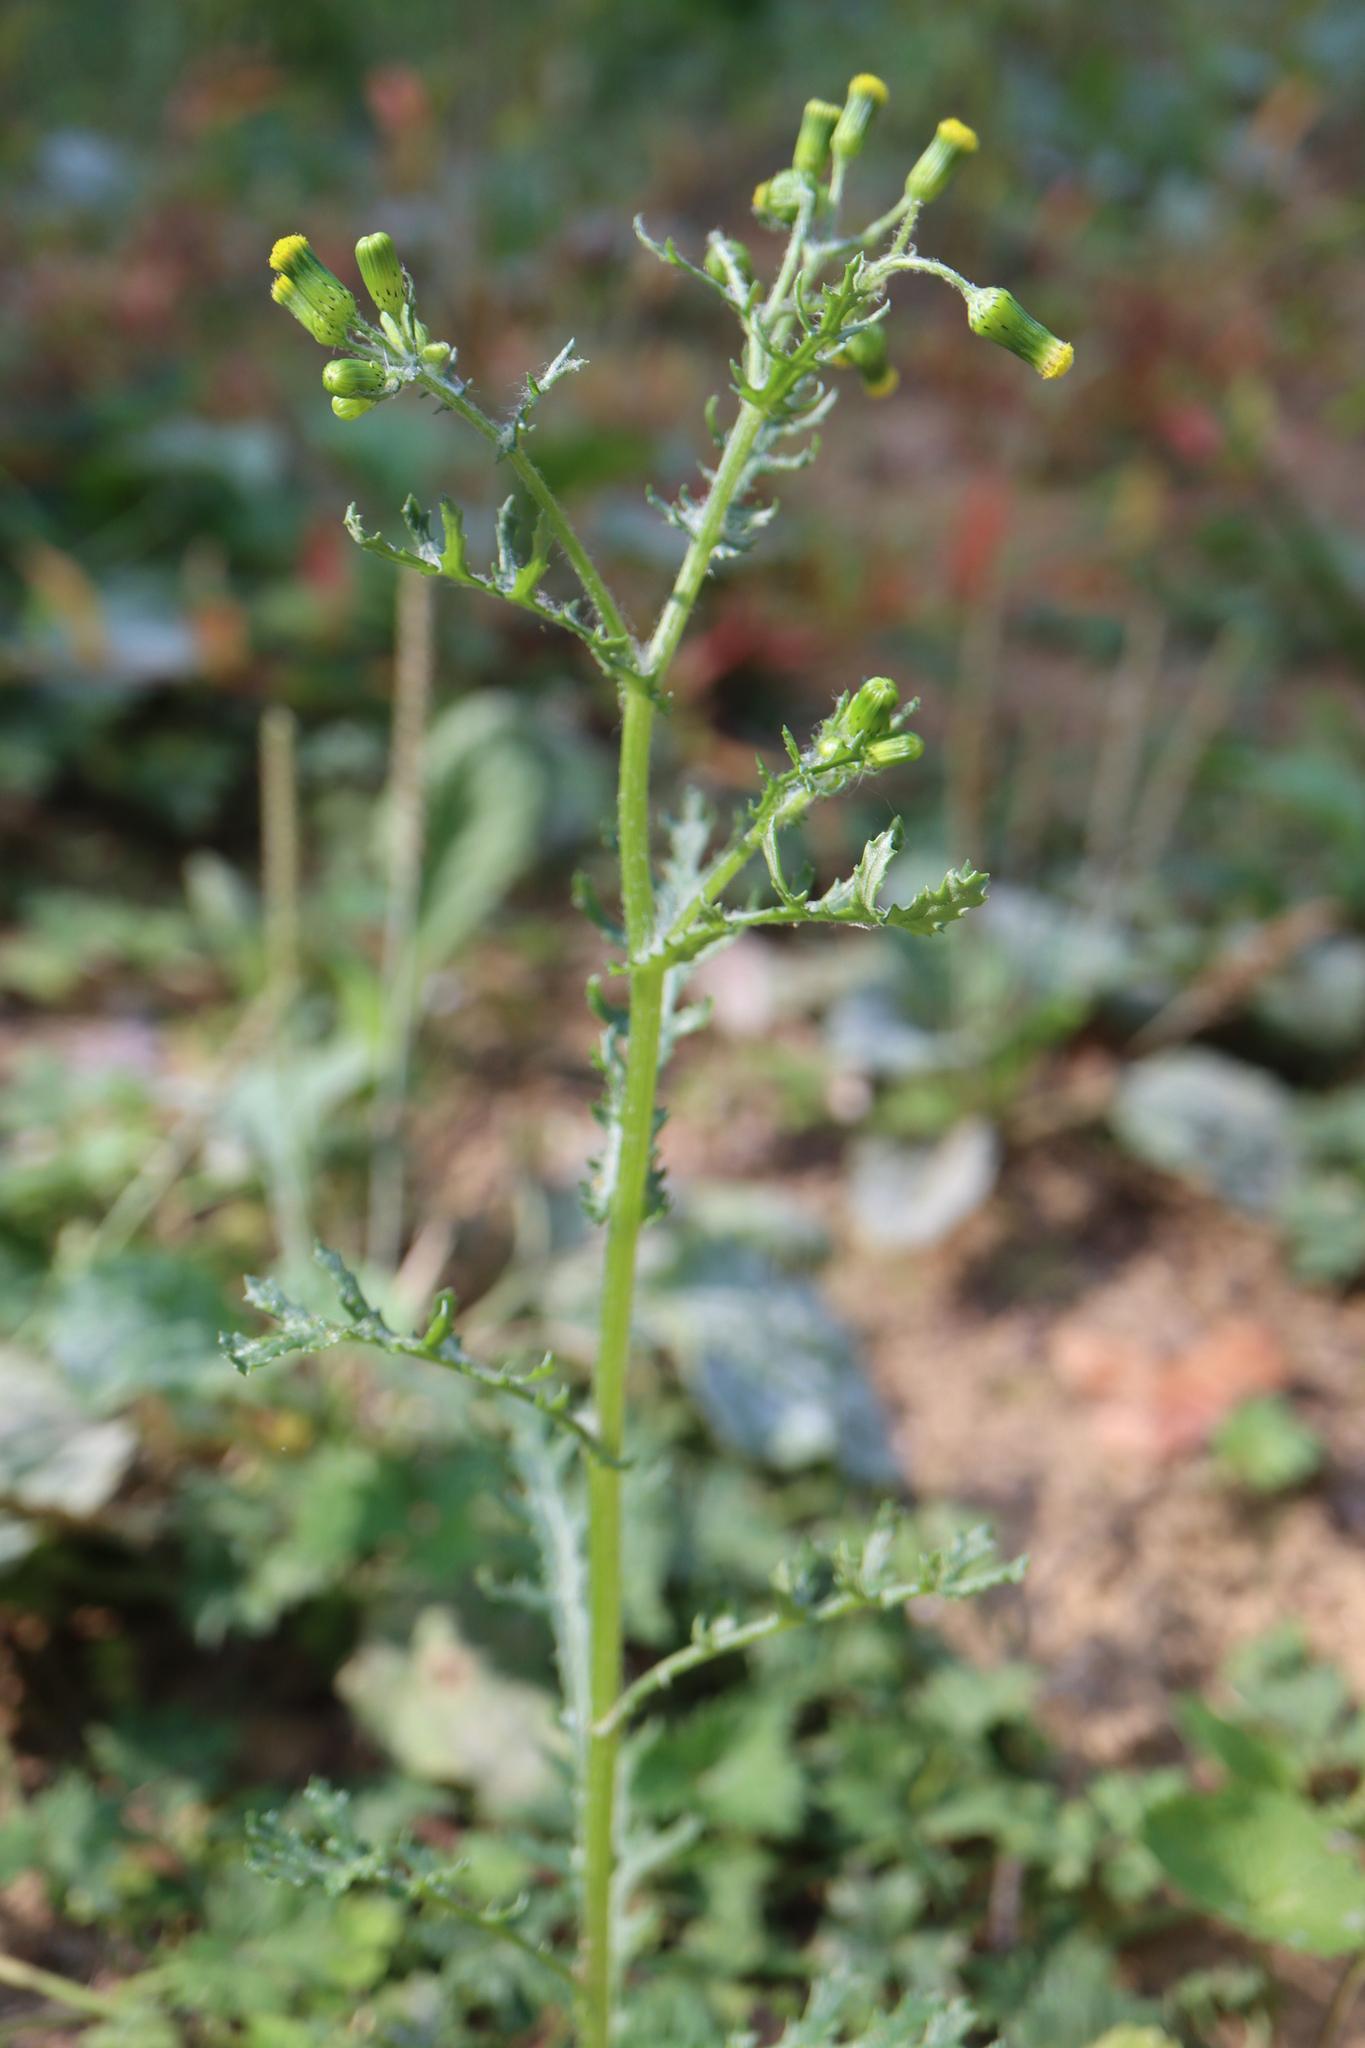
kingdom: Plantae
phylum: Tracheophyta
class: Magnoliopsida
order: Asterales
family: Asteraceae
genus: Senecio
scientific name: Senecio vulgaris
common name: Old-man-in-the-spring
